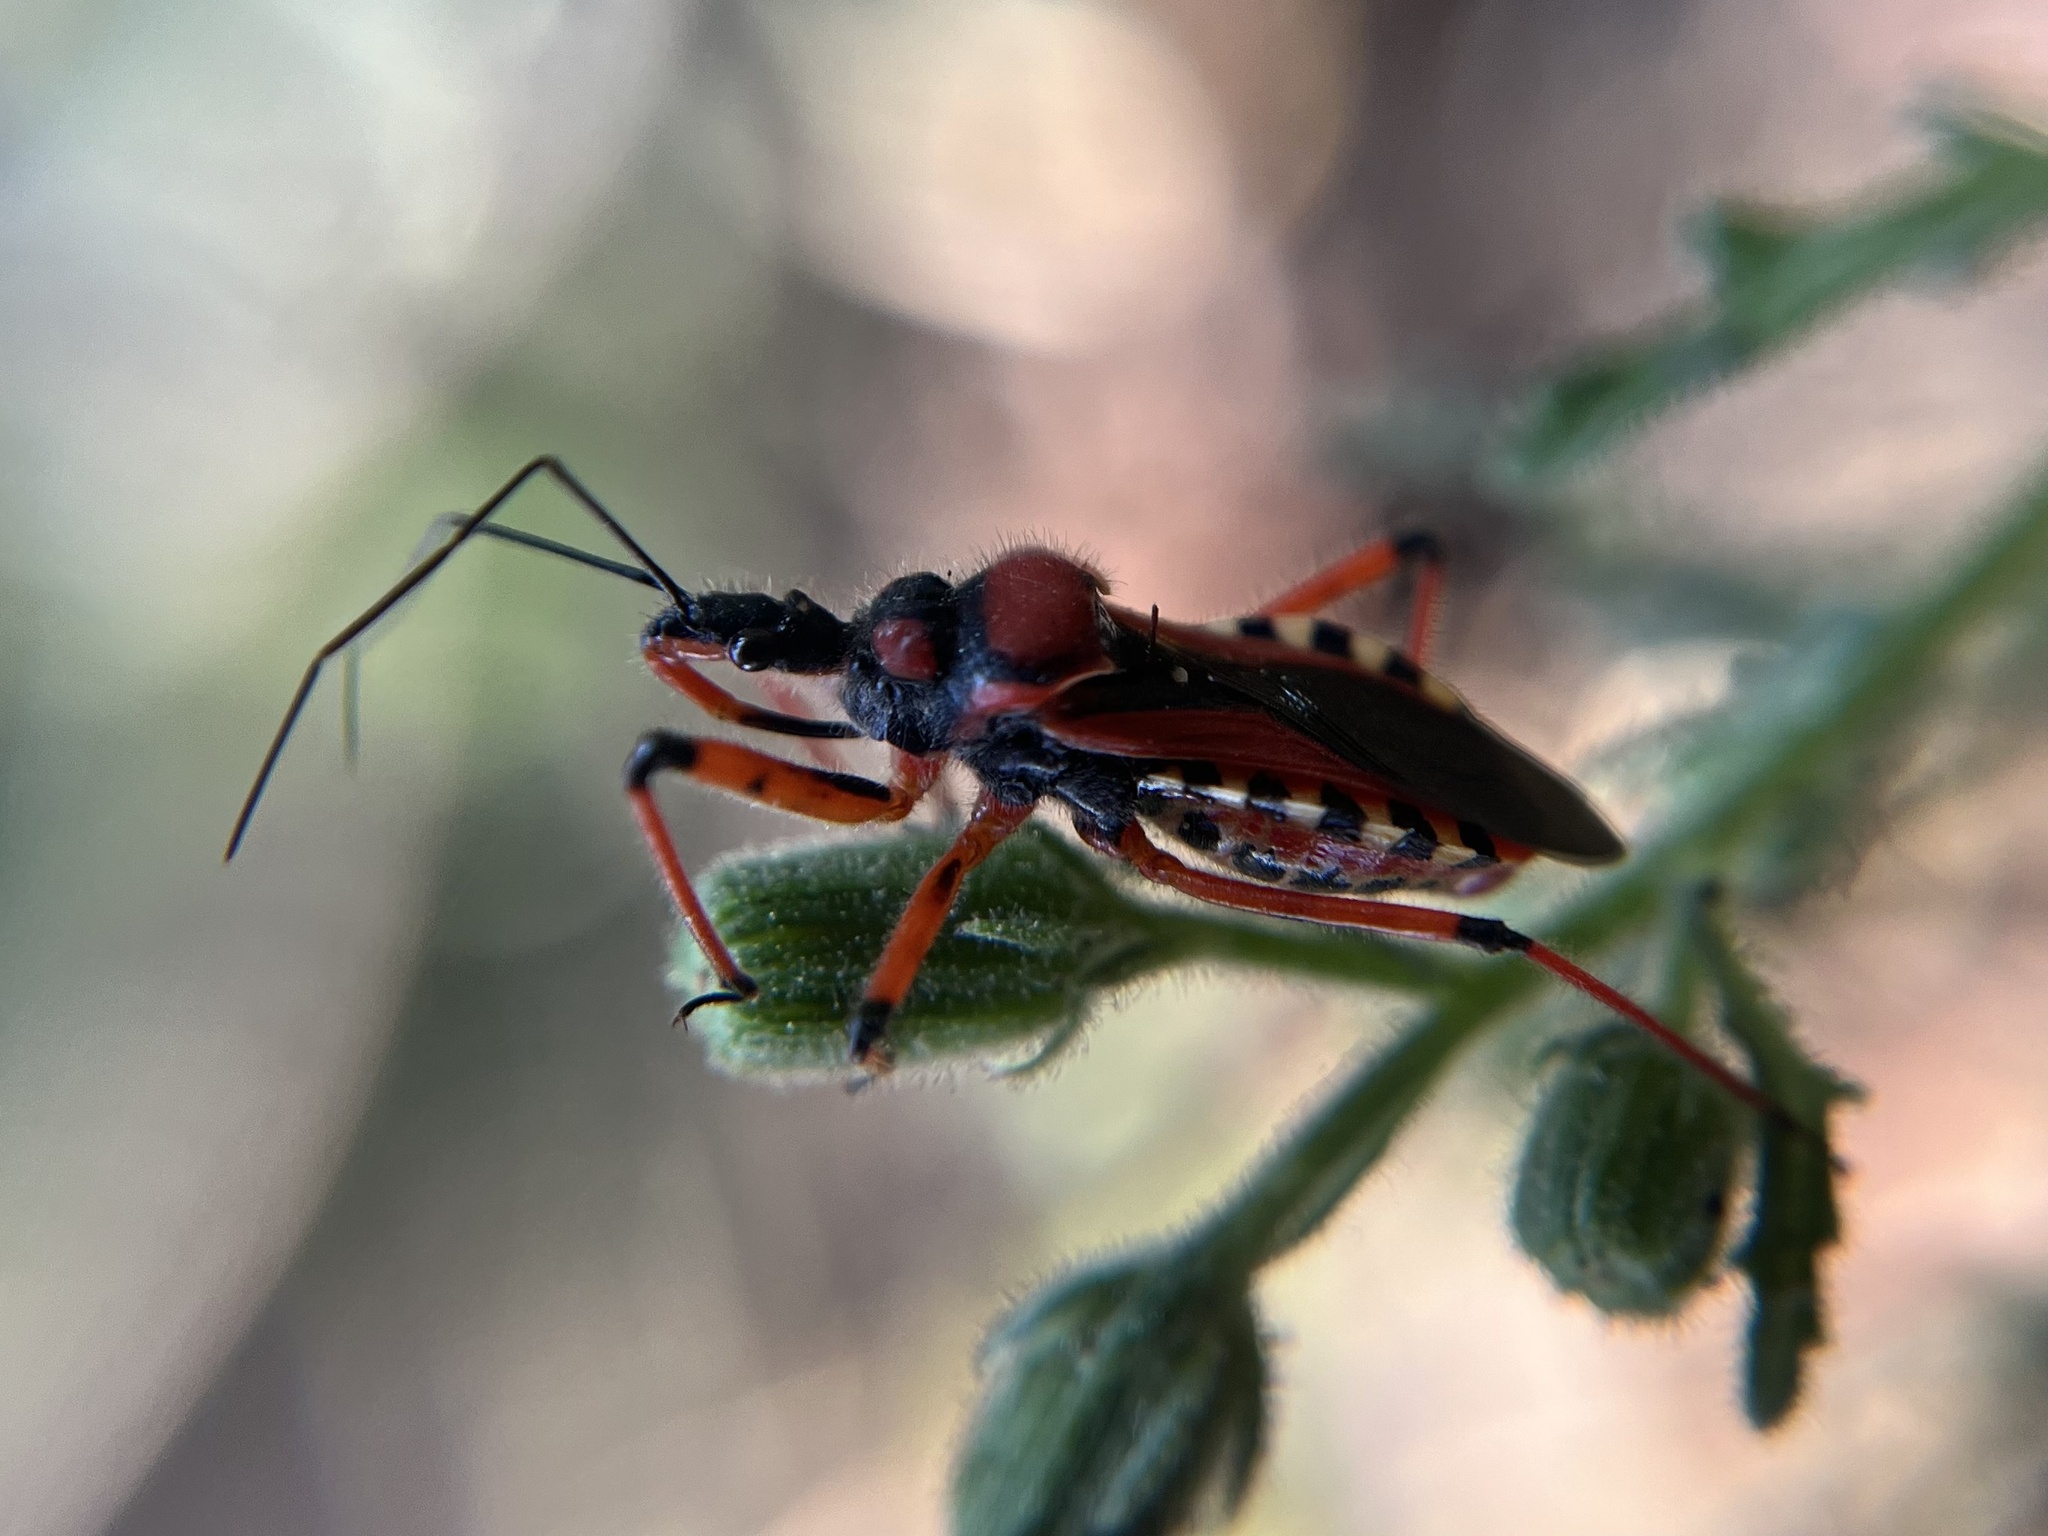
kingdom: Animalia
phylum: Arthropoda
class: Insecta
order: Hemiptera
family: Reduviidae
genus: Rhynocoris
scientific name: Rhynocoris iracundus
